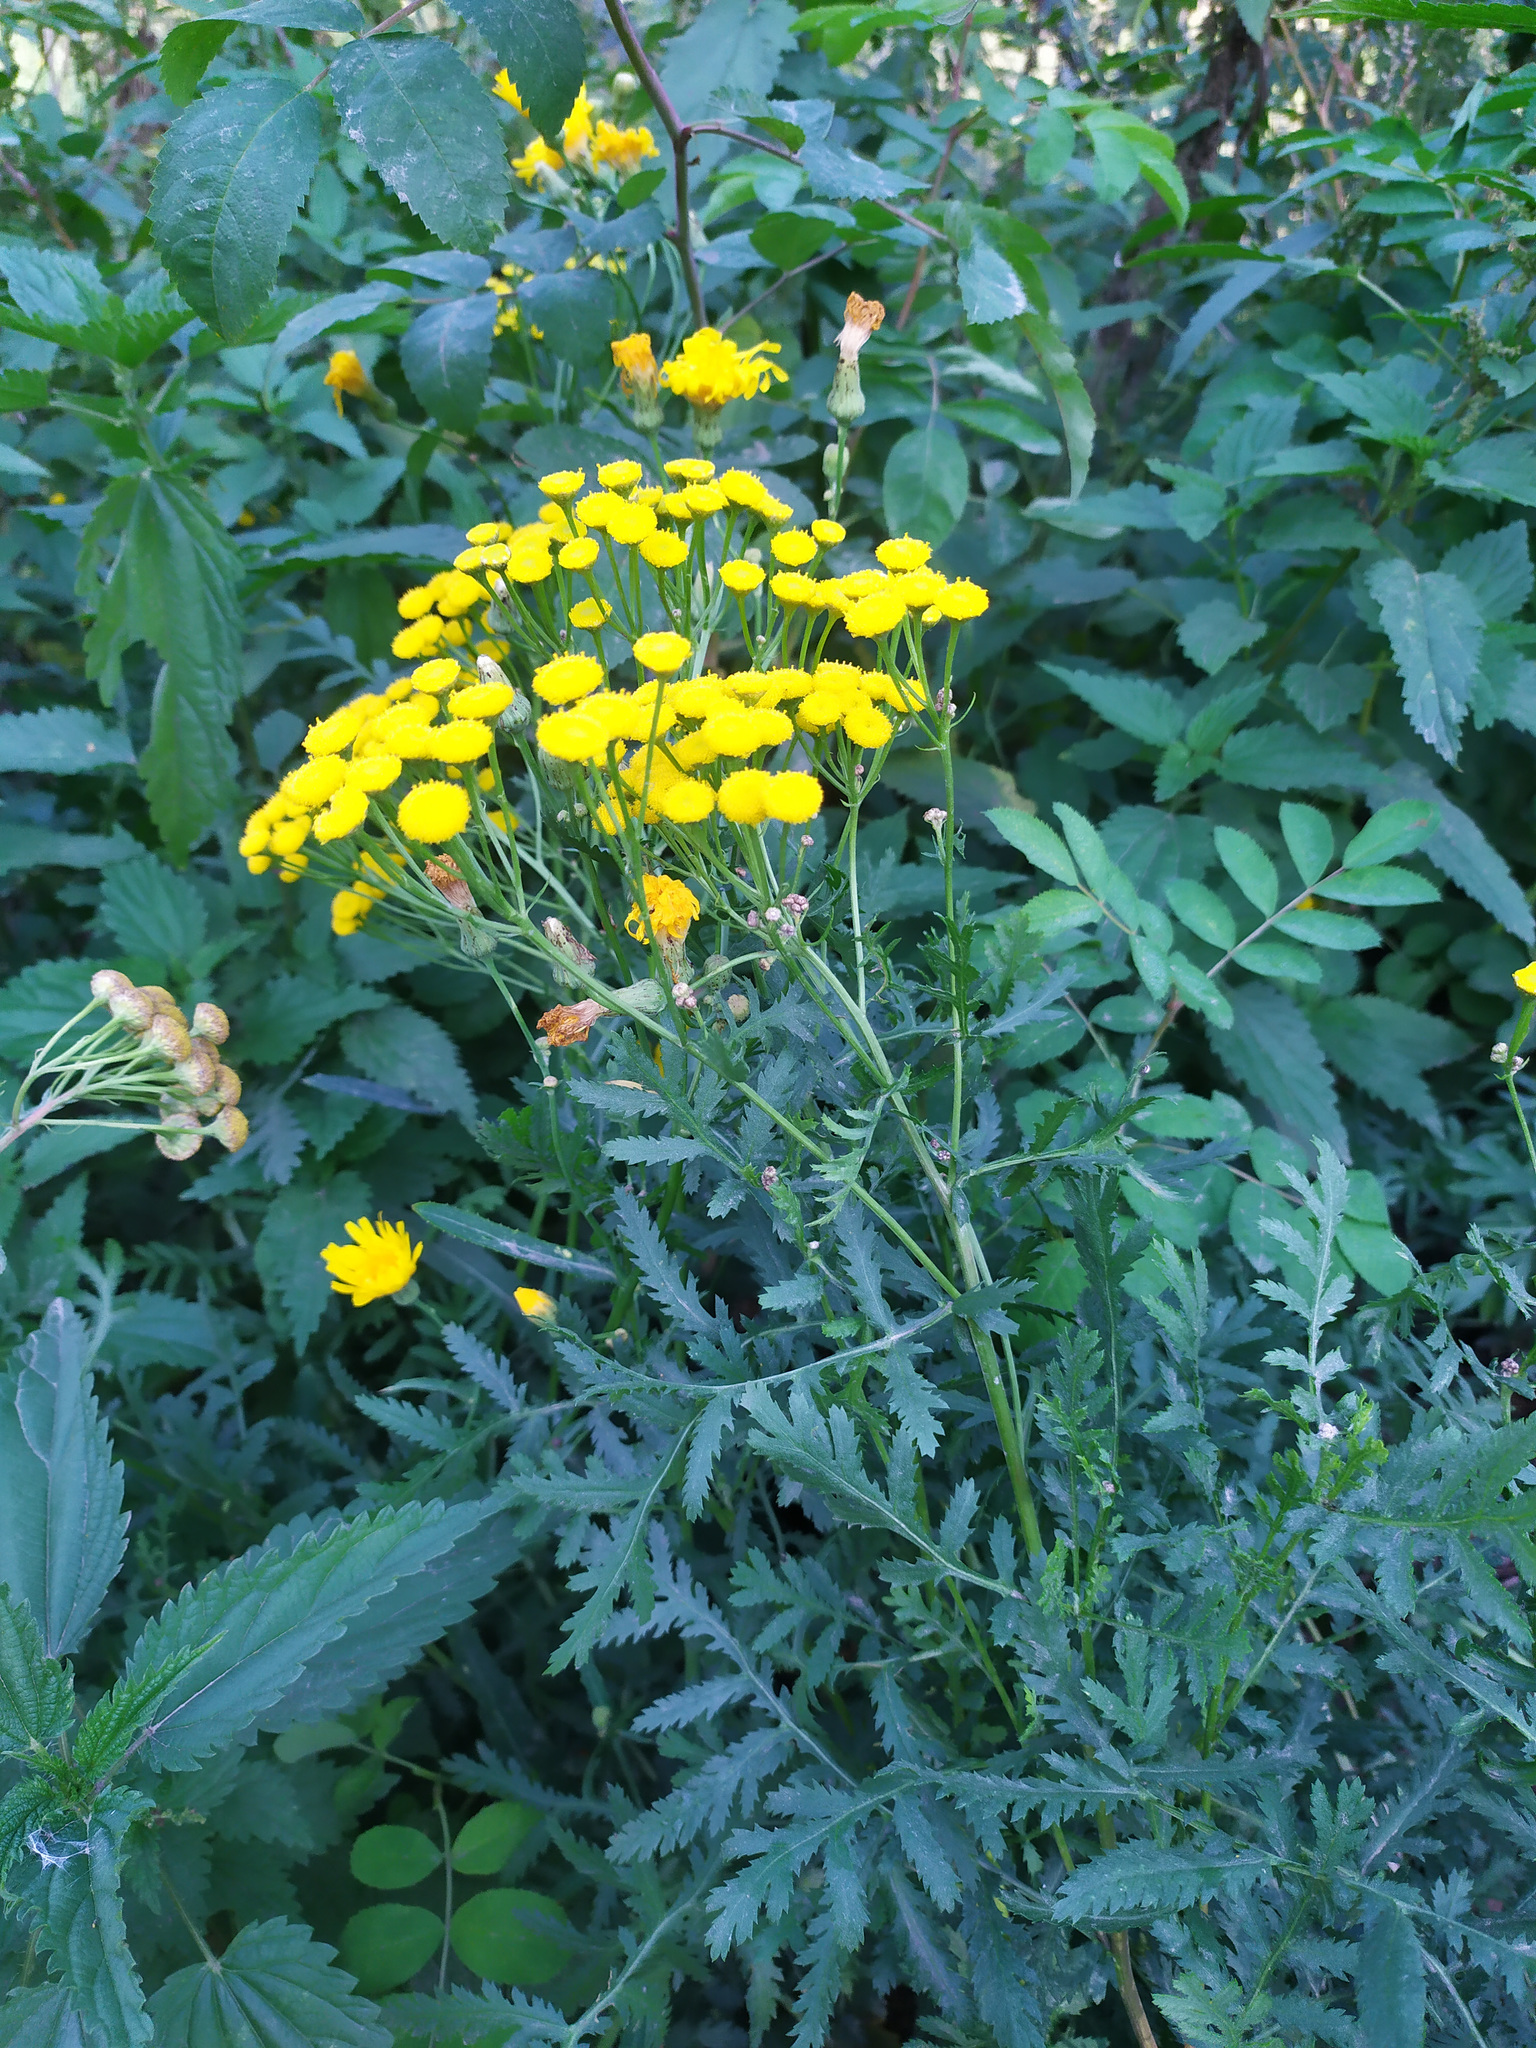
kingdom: Plantae
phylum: Tracheophyta
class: Magnoliopsida
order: Asterales
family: Asteraceae
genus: Tanacetum
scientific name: Tanacetum vulgare
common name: Common tansy
